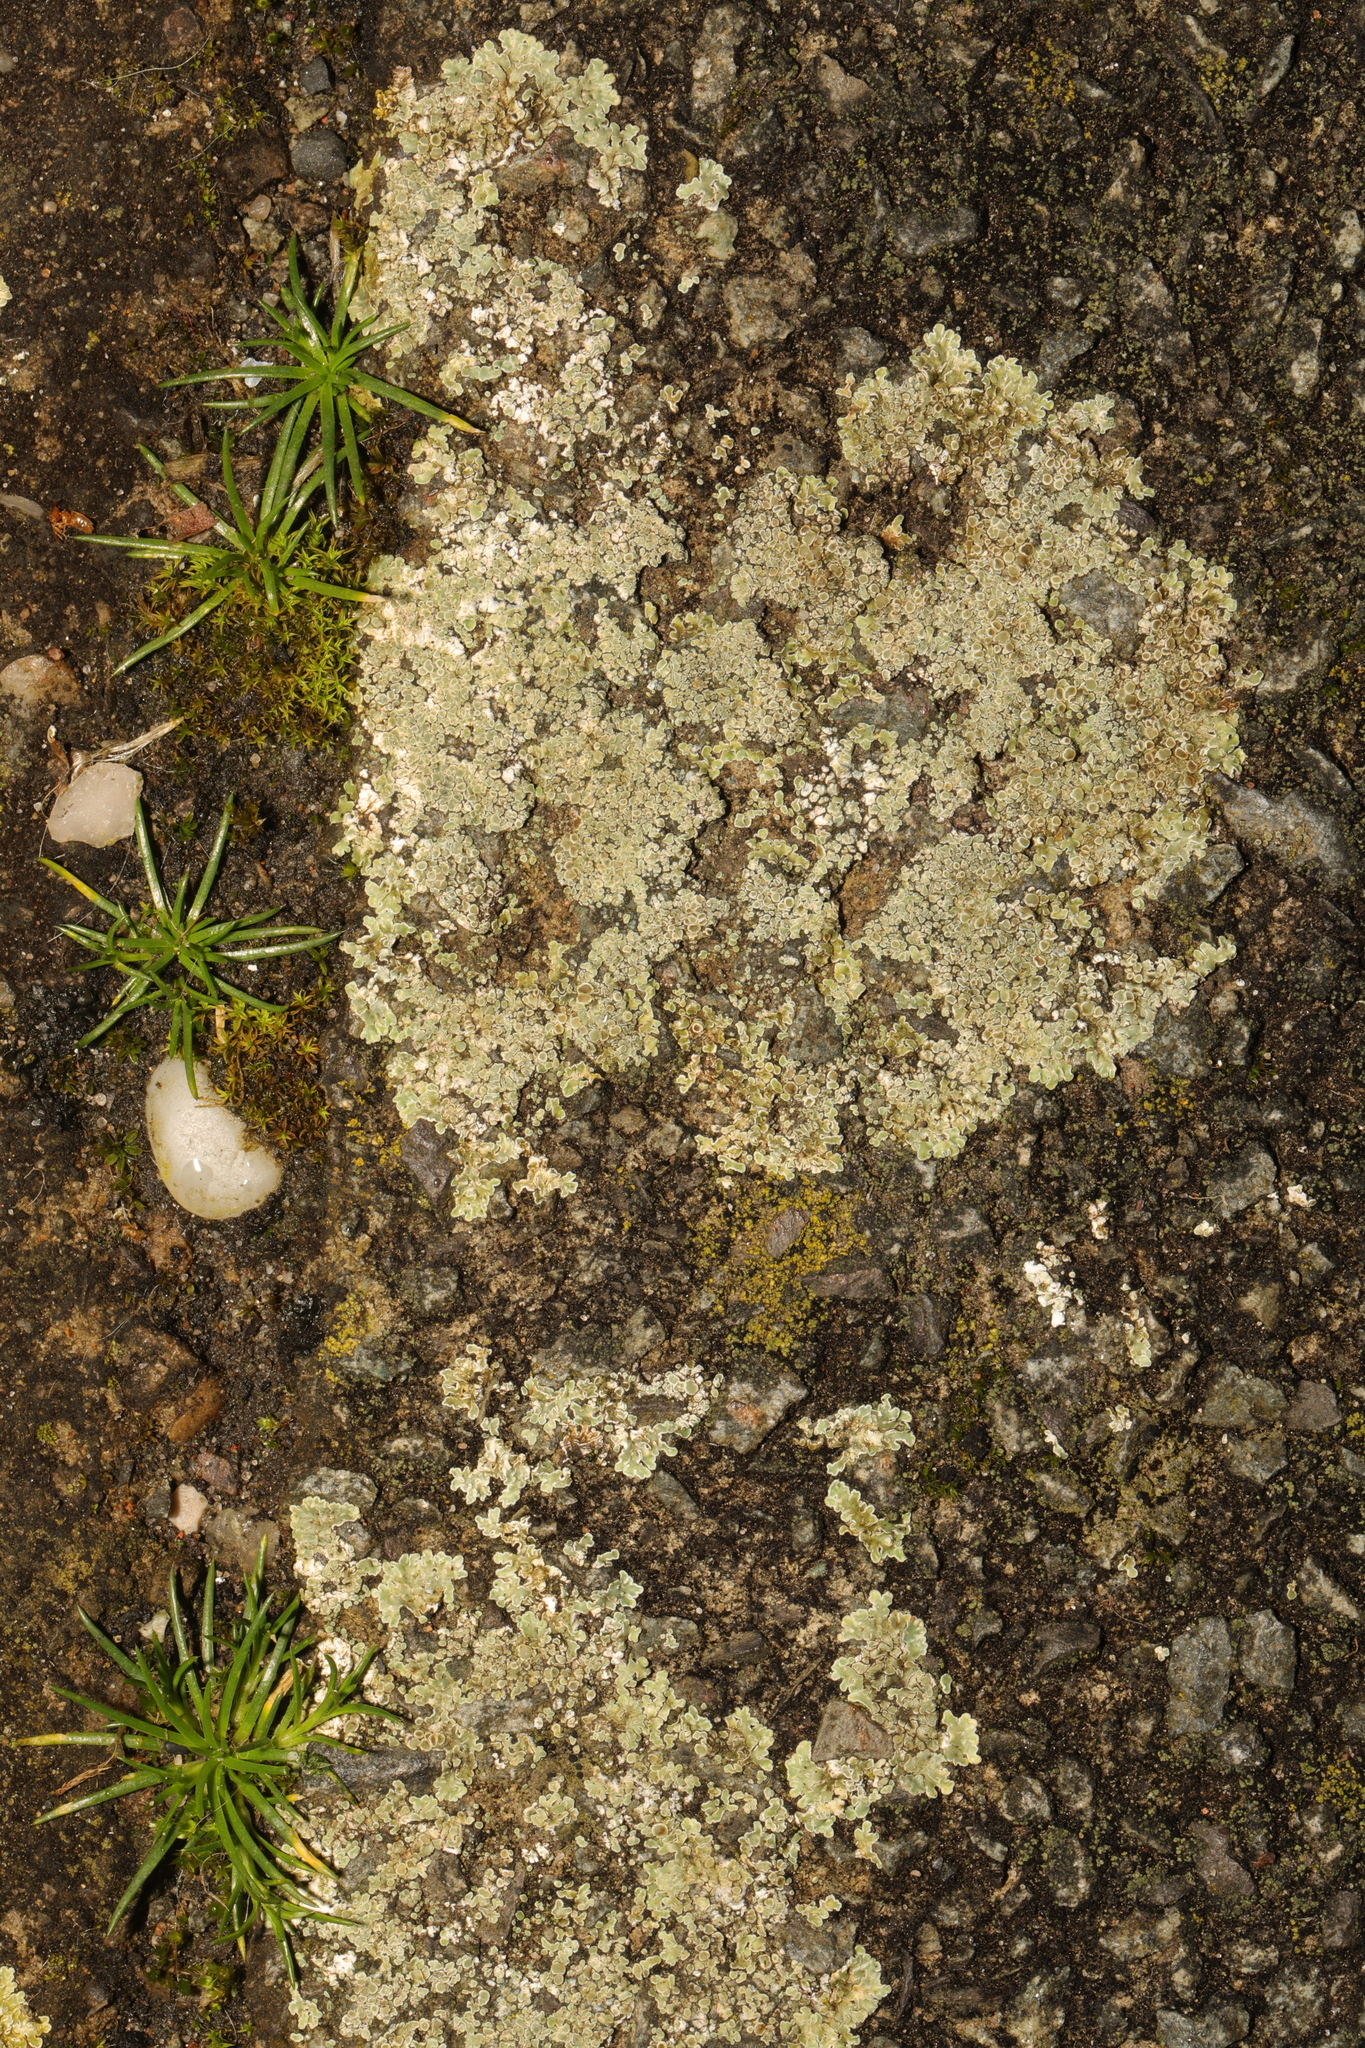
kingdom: Fungi
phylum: Ascomycota
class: Lecanoromycetes
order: Lecanorales
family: Lecanoraceae
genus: Protoparmeliopsis
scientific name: Protoparmeliopsis muralis
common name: Stonewall rim lichen
